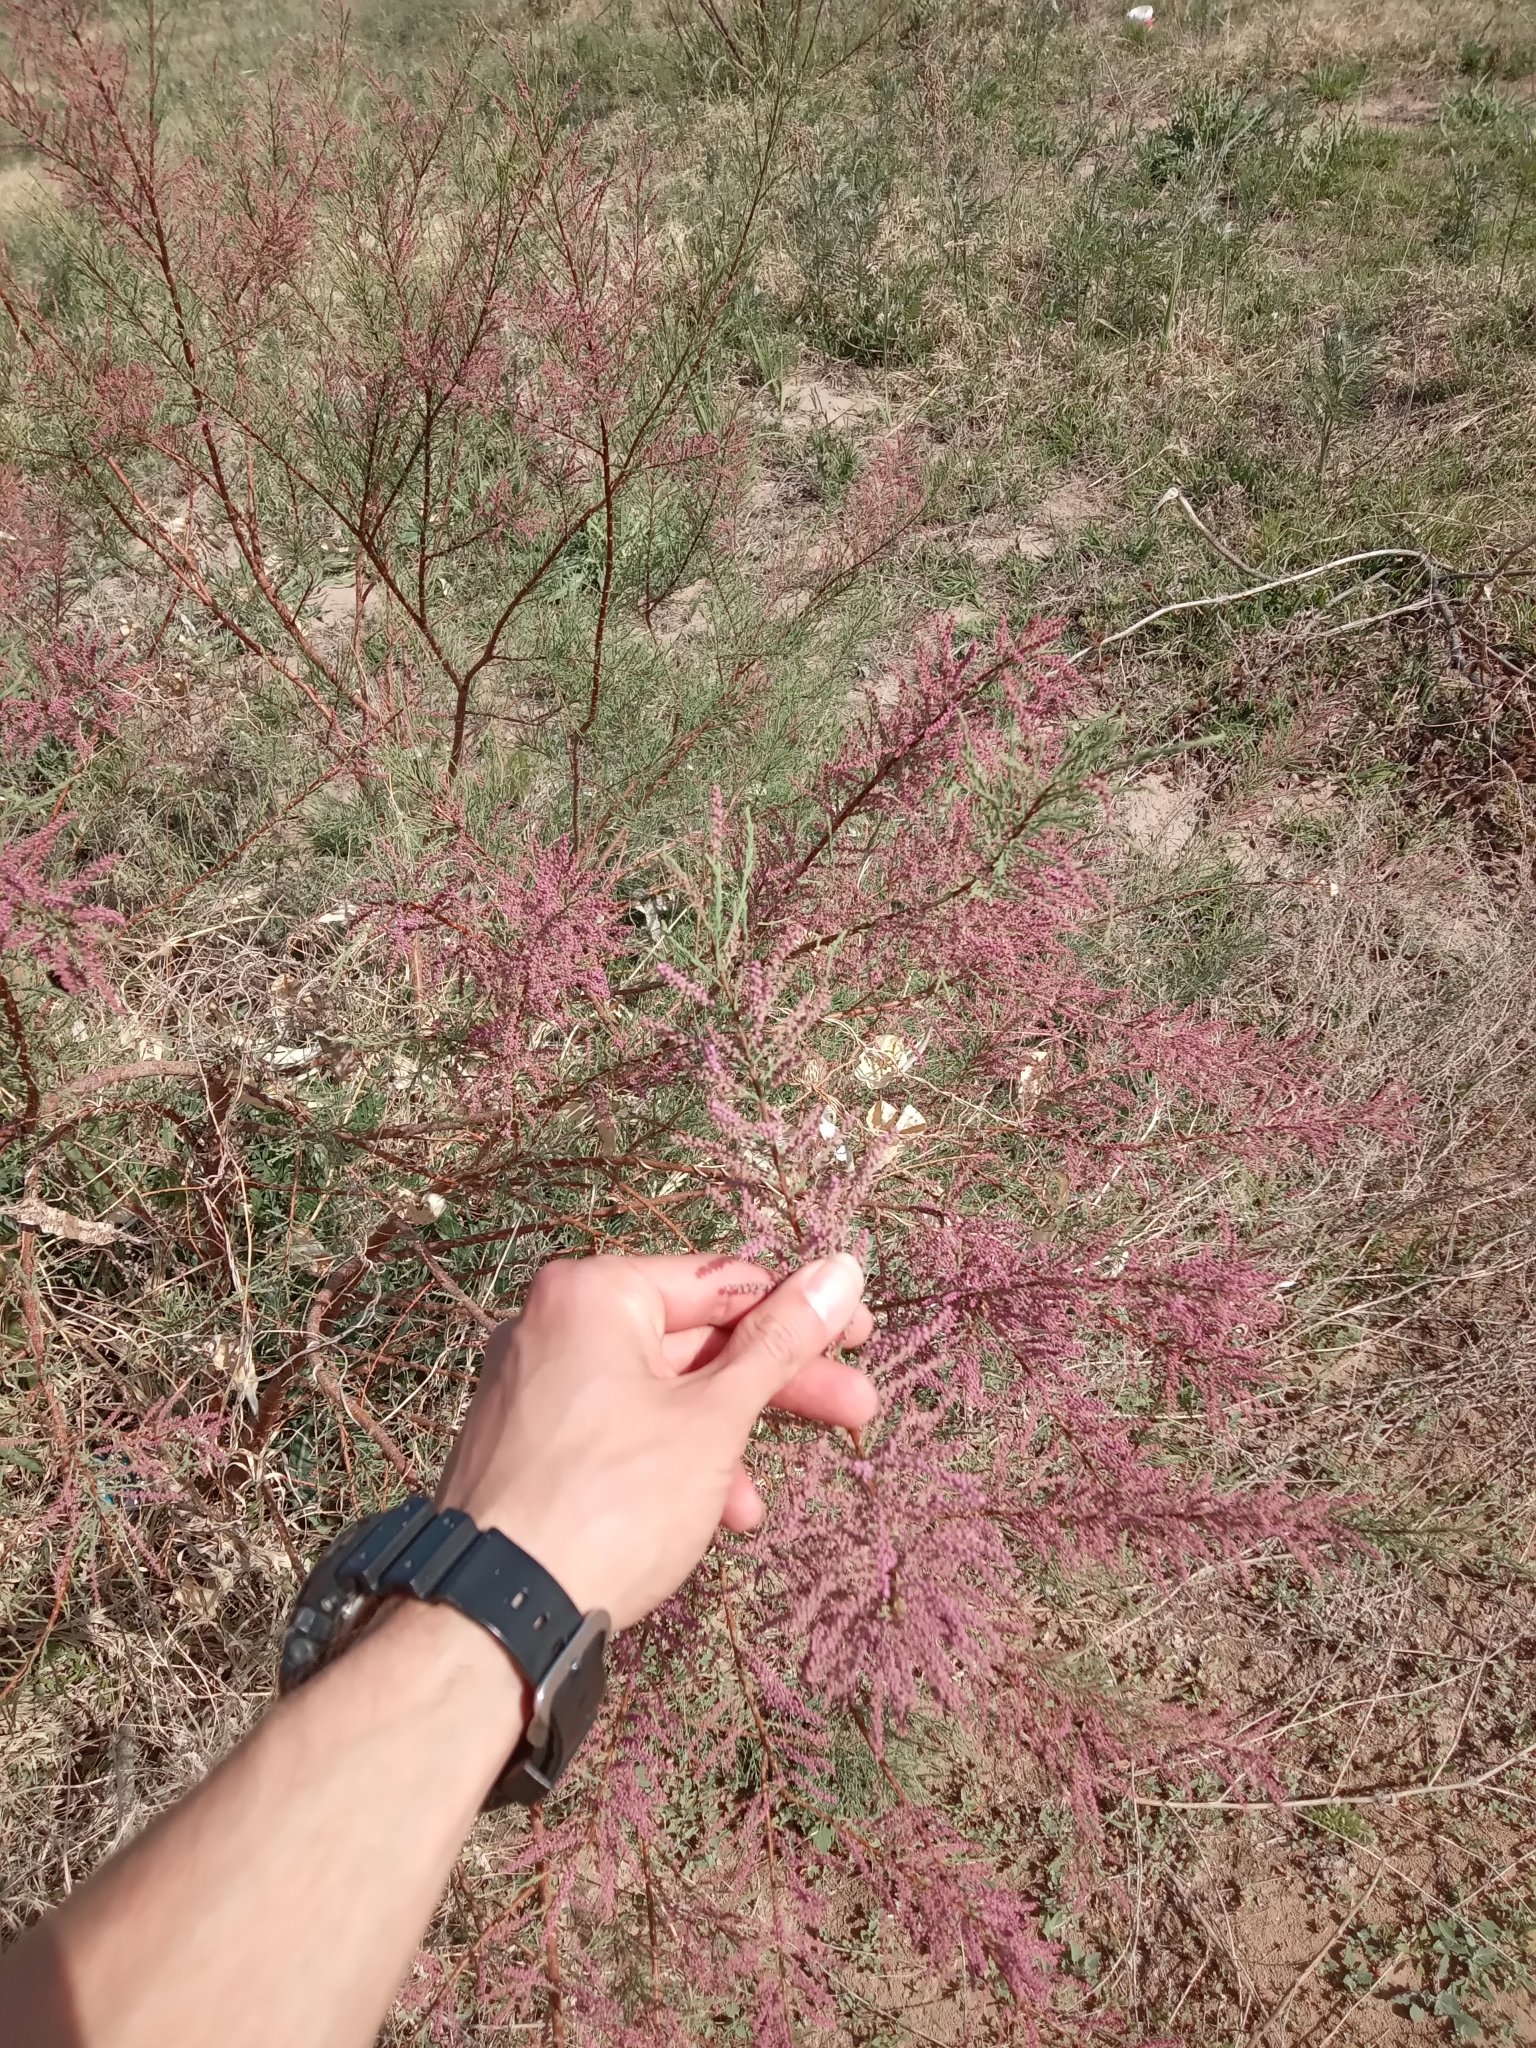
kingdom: Plantae
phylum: Tracheophyta
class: Magnoliopsida
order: Caryophyllales
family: Tamaricaceae
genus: Tamarix
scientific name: Tamarix ramosissima
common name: Pink tamarisk
